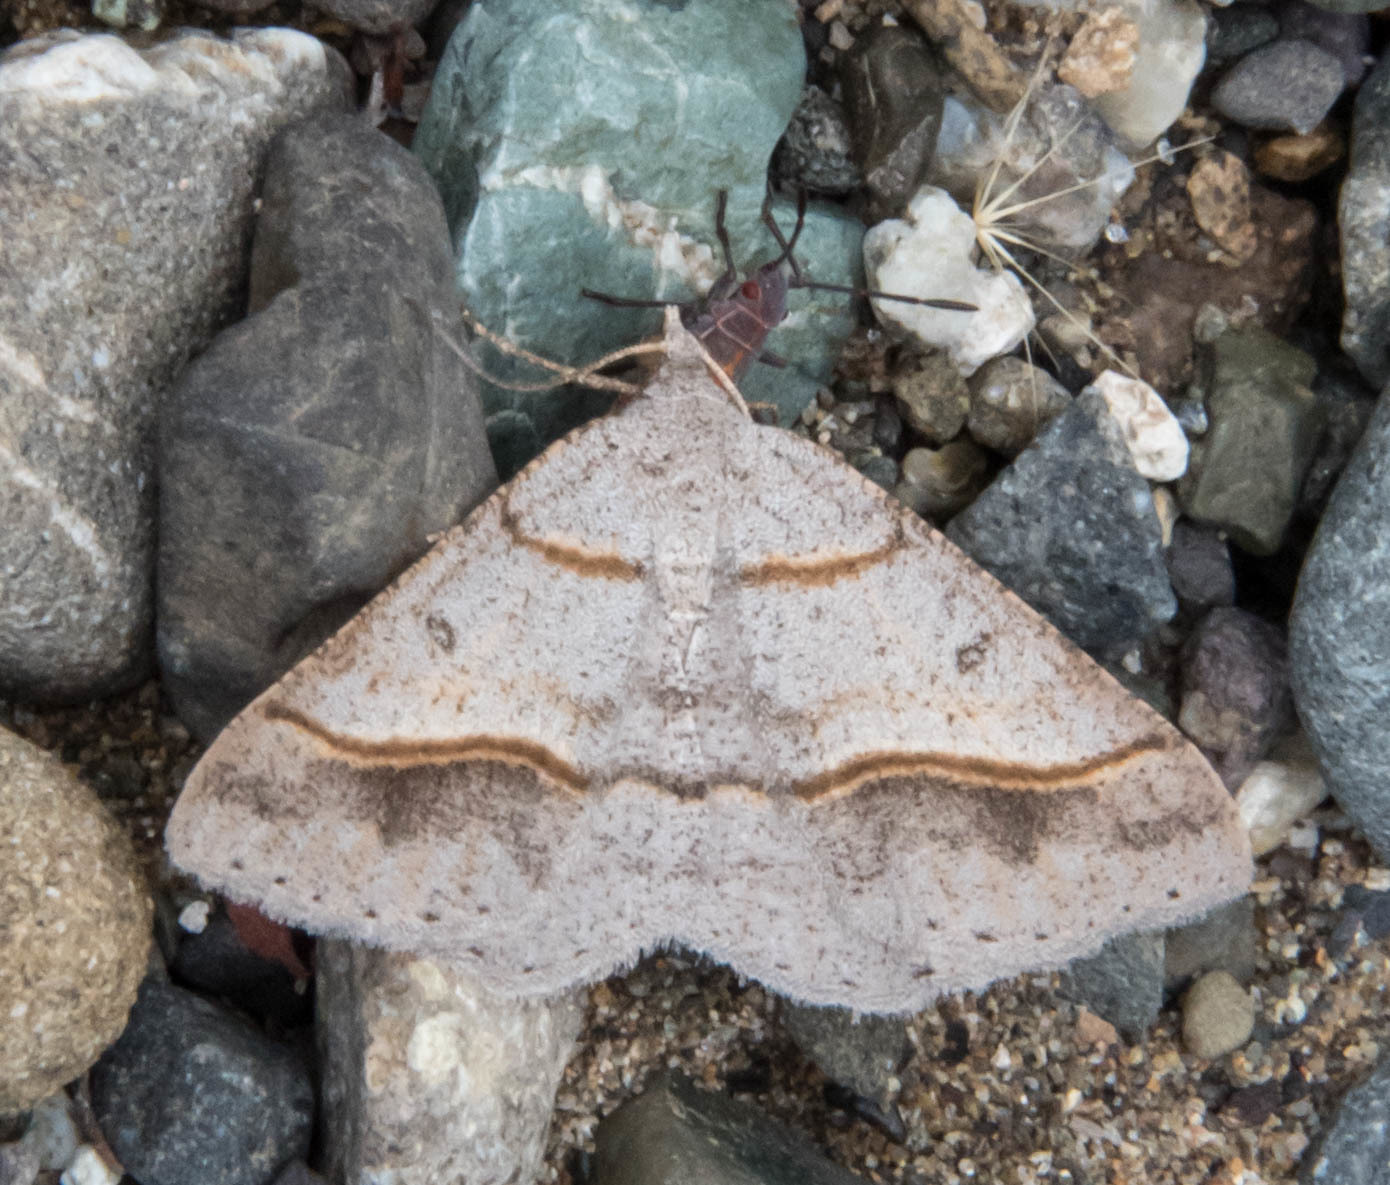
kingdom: Animalia
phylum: Arthropoda
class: Insecta
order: Lepidoptera
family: Geometridae
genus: Digrammia
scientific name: Digrammia neptaria
